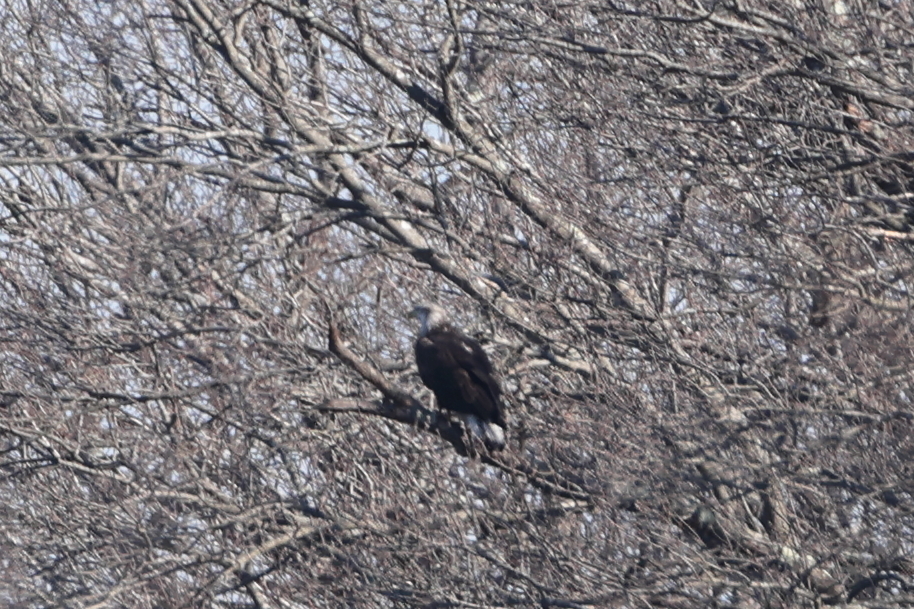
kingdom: Animalia
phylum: Chordata
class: Aves
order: Accipitriformes
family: Accipitridae
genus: Haliaeetus
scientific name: Haliaeetus leucocephalus
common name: Bald eagle
